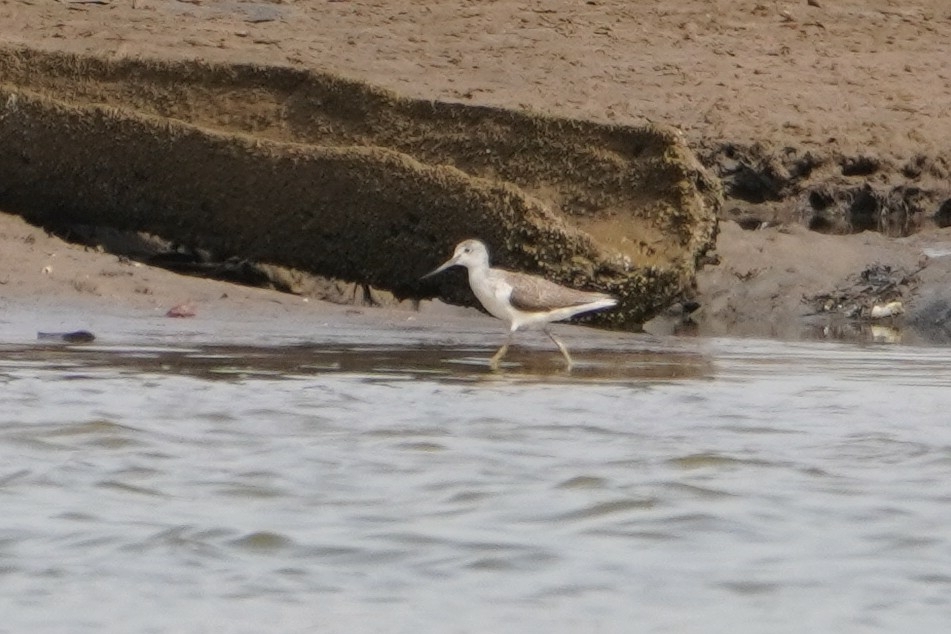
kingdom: Animalia
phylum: Chordata
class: Aves
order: Charadriiformes
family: Scolopacidae
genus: Tringa
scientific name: Tringa nebularia
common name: Common greenshank
